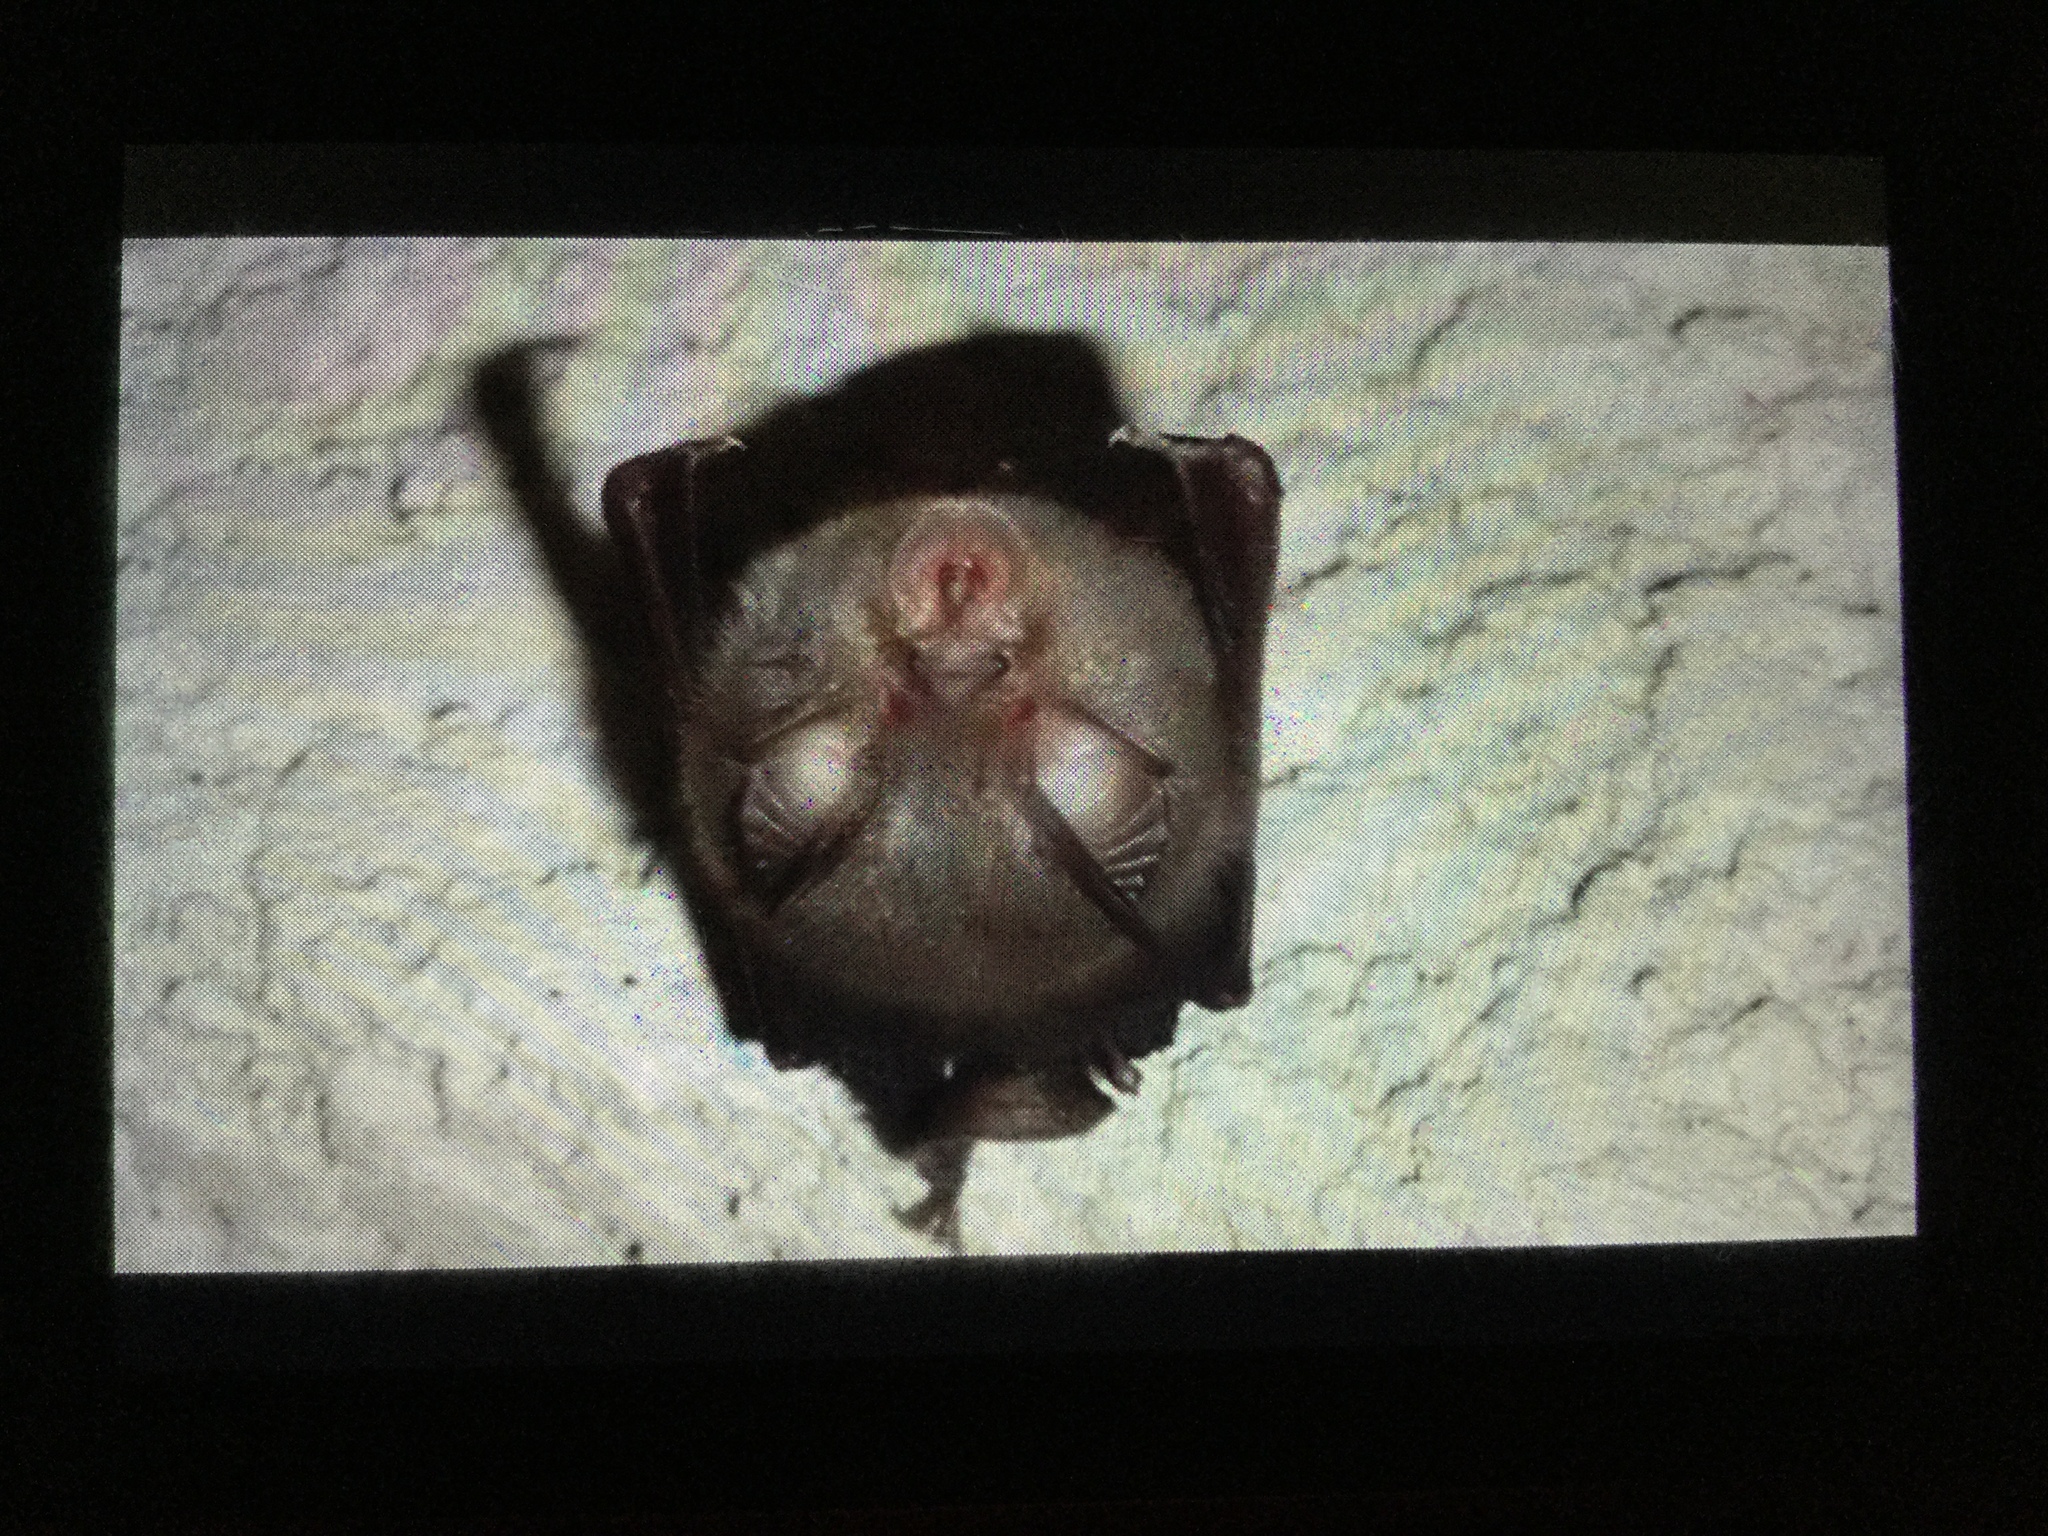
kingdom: Animalia
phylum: Chordata
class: Mammalia
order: Chiroptera
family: Rhinolophidae
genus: Rhinolophus
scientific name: Rhinolophus hipposideros
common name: Lesser horseshoe bat
